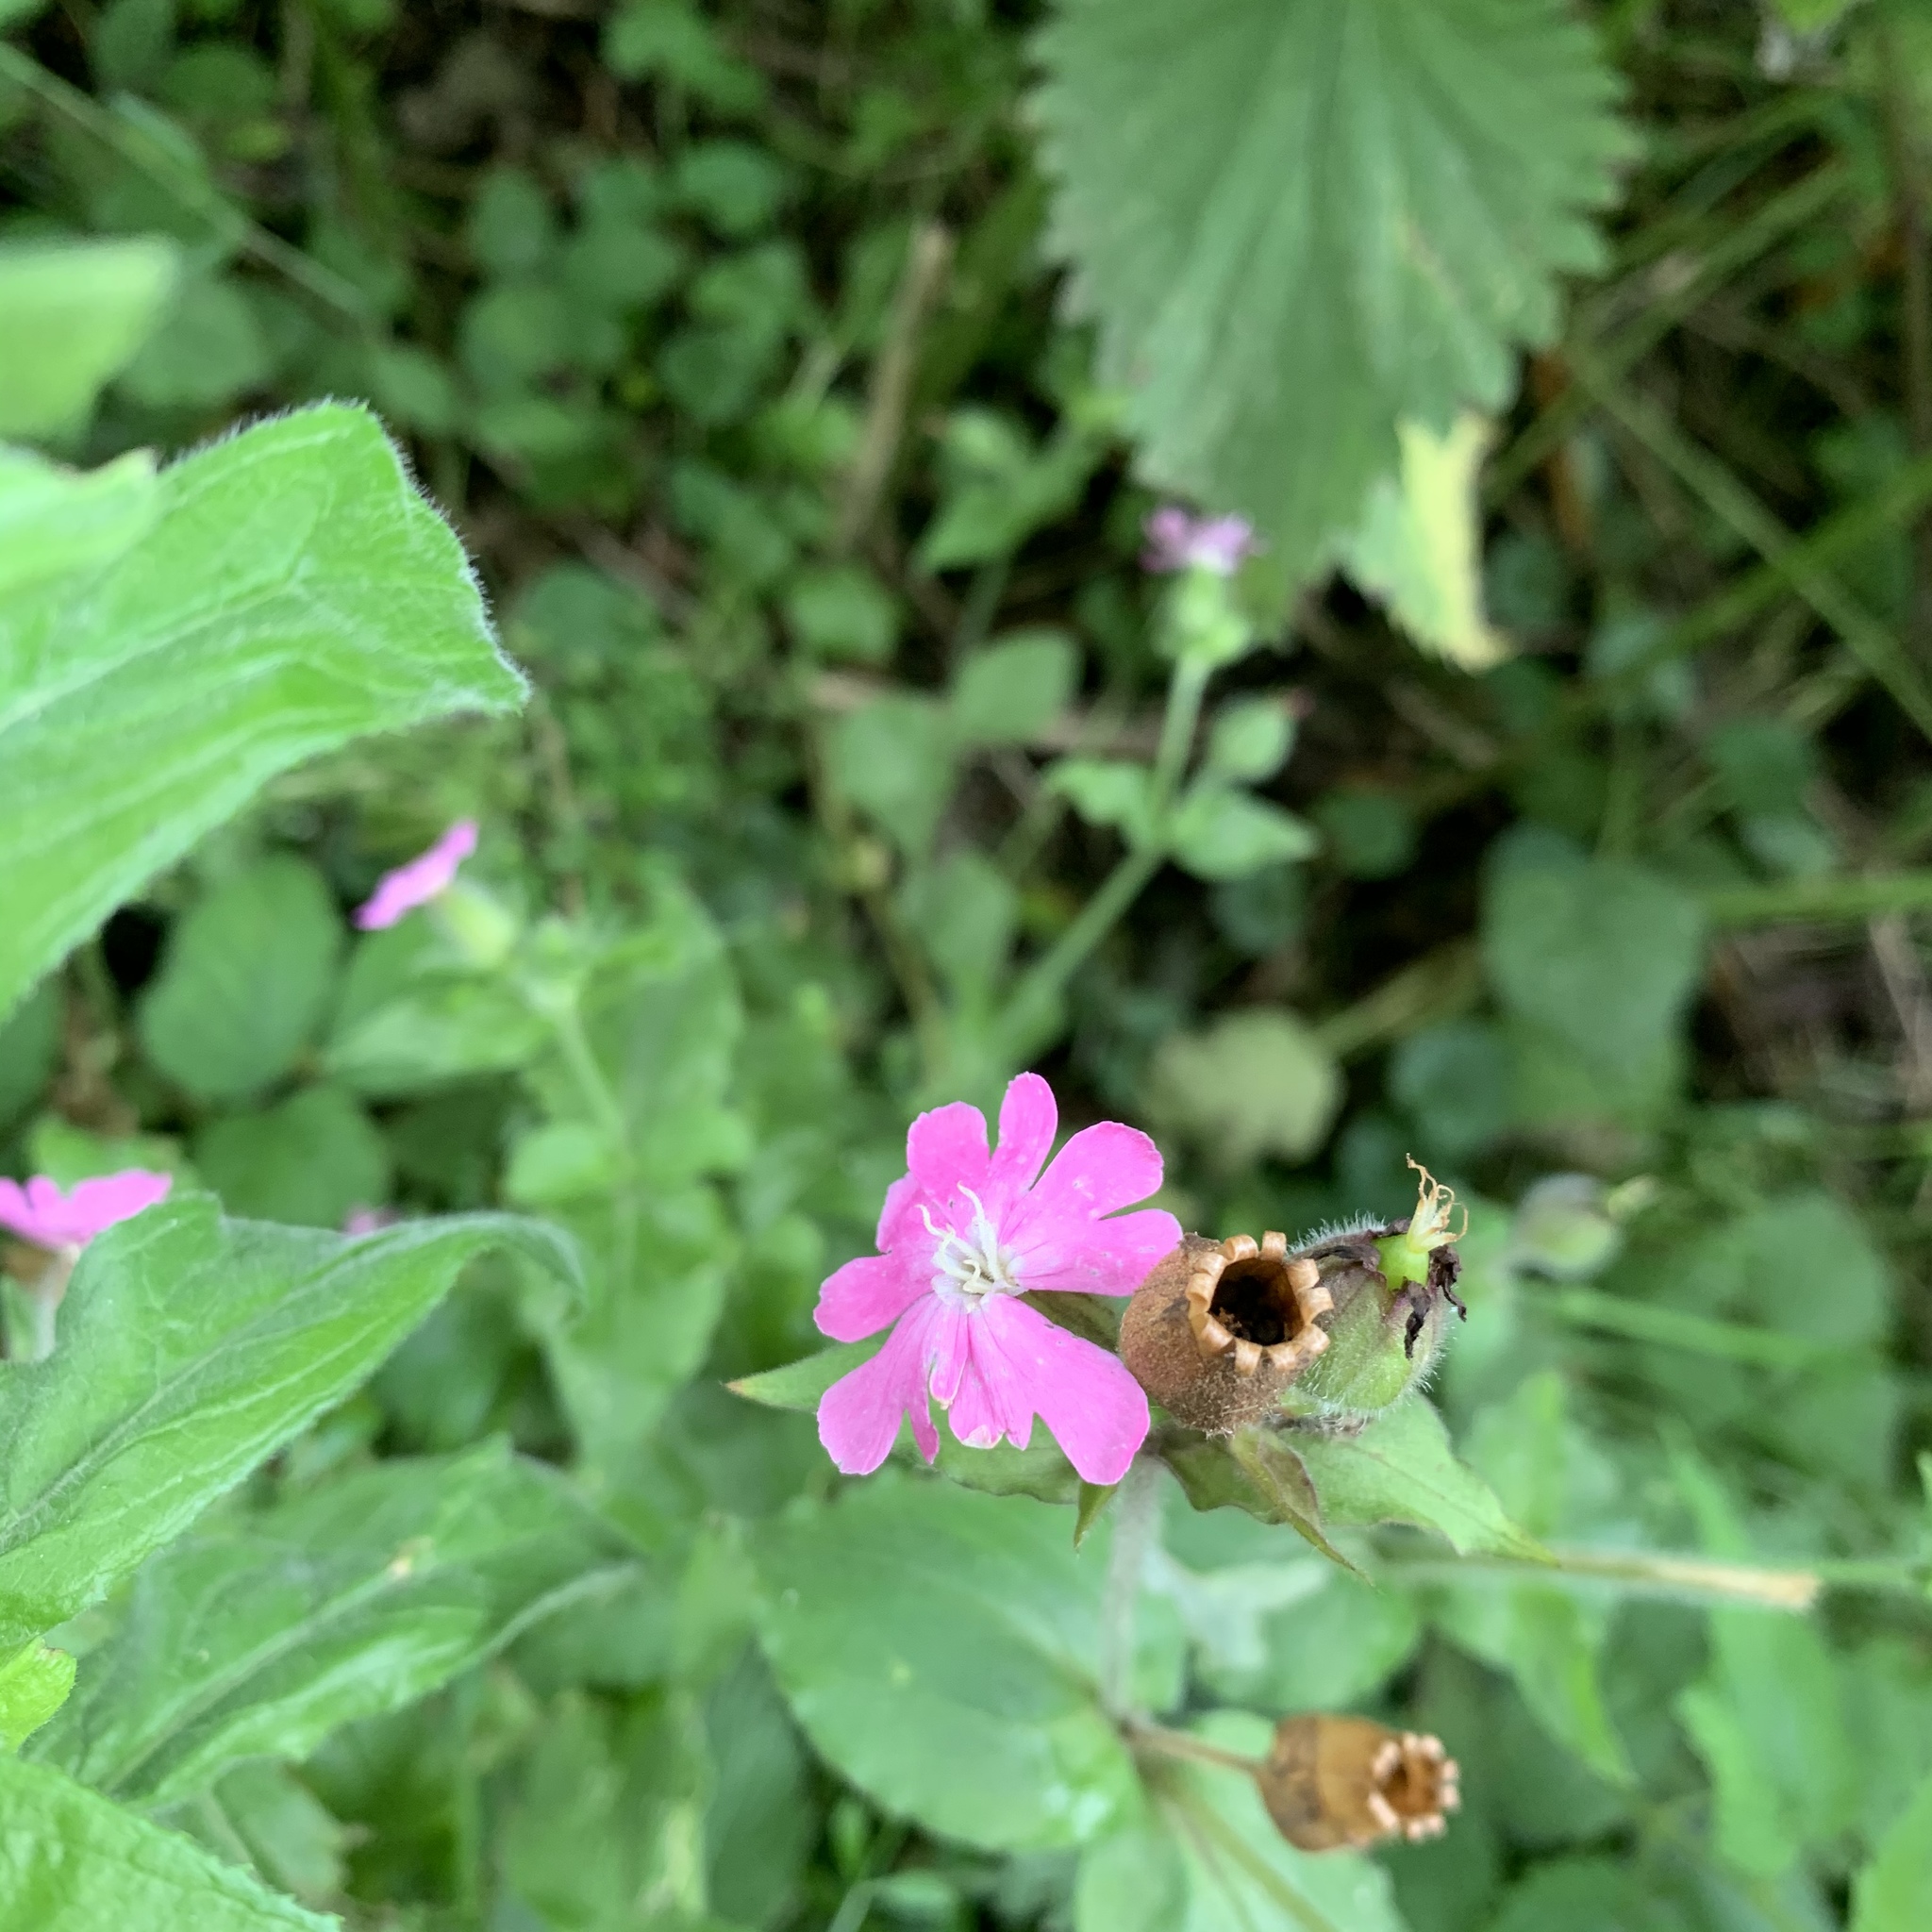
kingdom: Plantae
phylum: Tracheophyta
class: Magnoliopsida
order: Caryophyllales
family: Caryophyllaceae
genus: Silene
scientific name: Silene dioica
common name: Red campion
